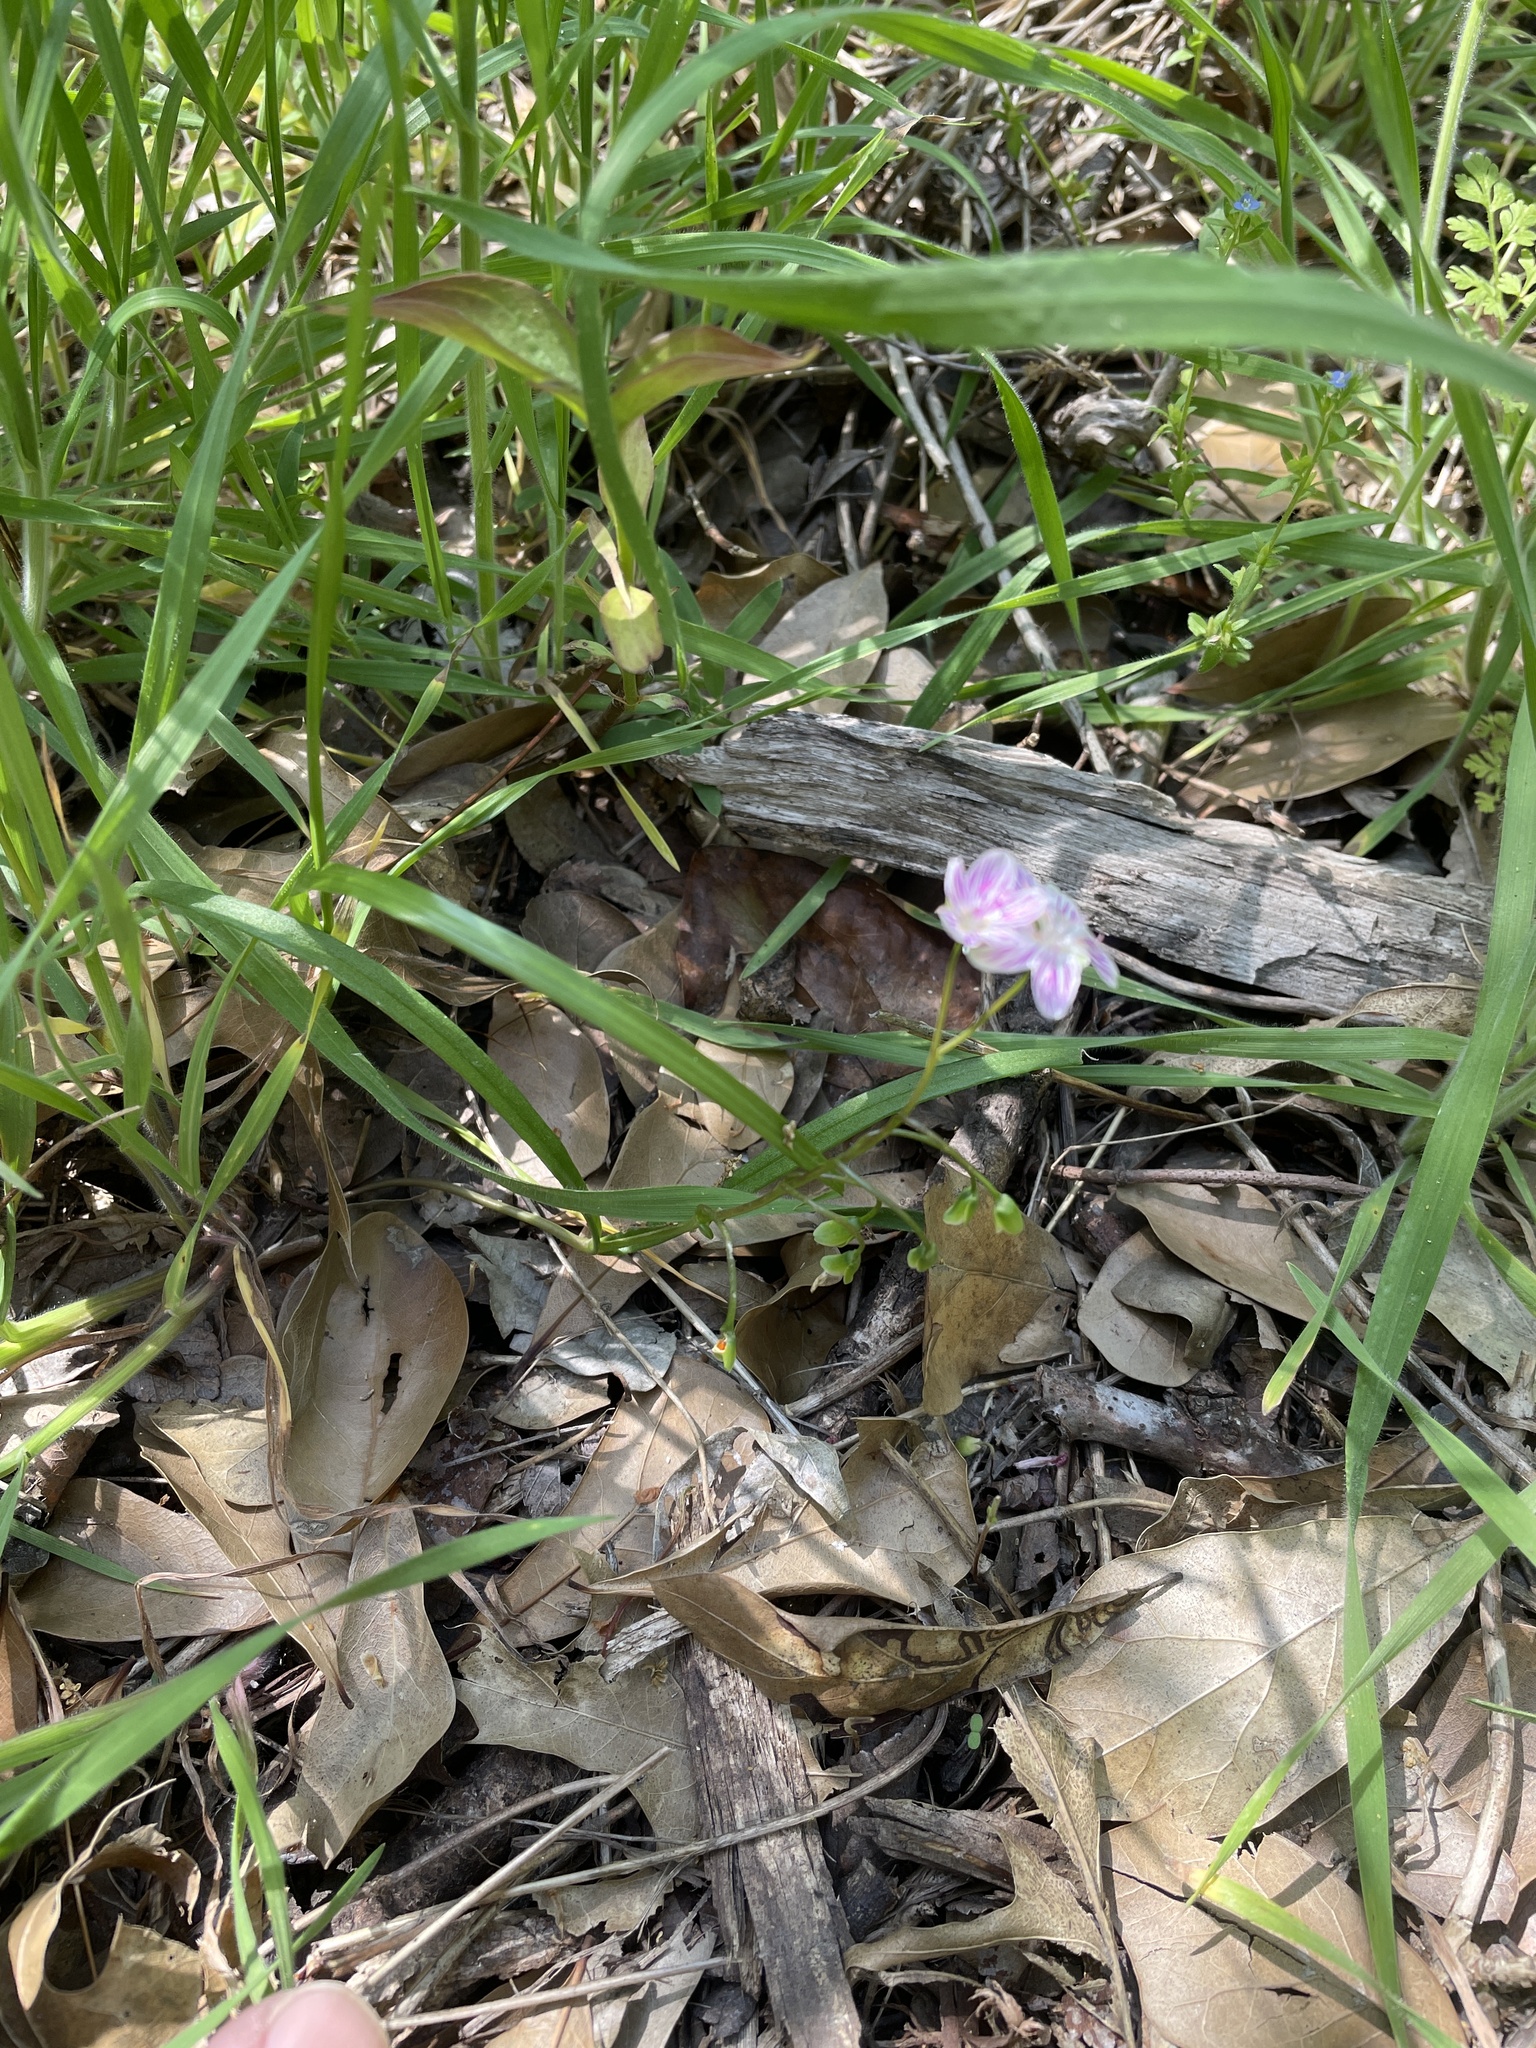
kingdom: Plantae
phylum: Tracheophyta
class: Magnoliopsida
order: Caryophyllales
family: Montiaceae
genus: Claytonia
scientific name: Claytonia virginica
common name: Virginia springbeauty
